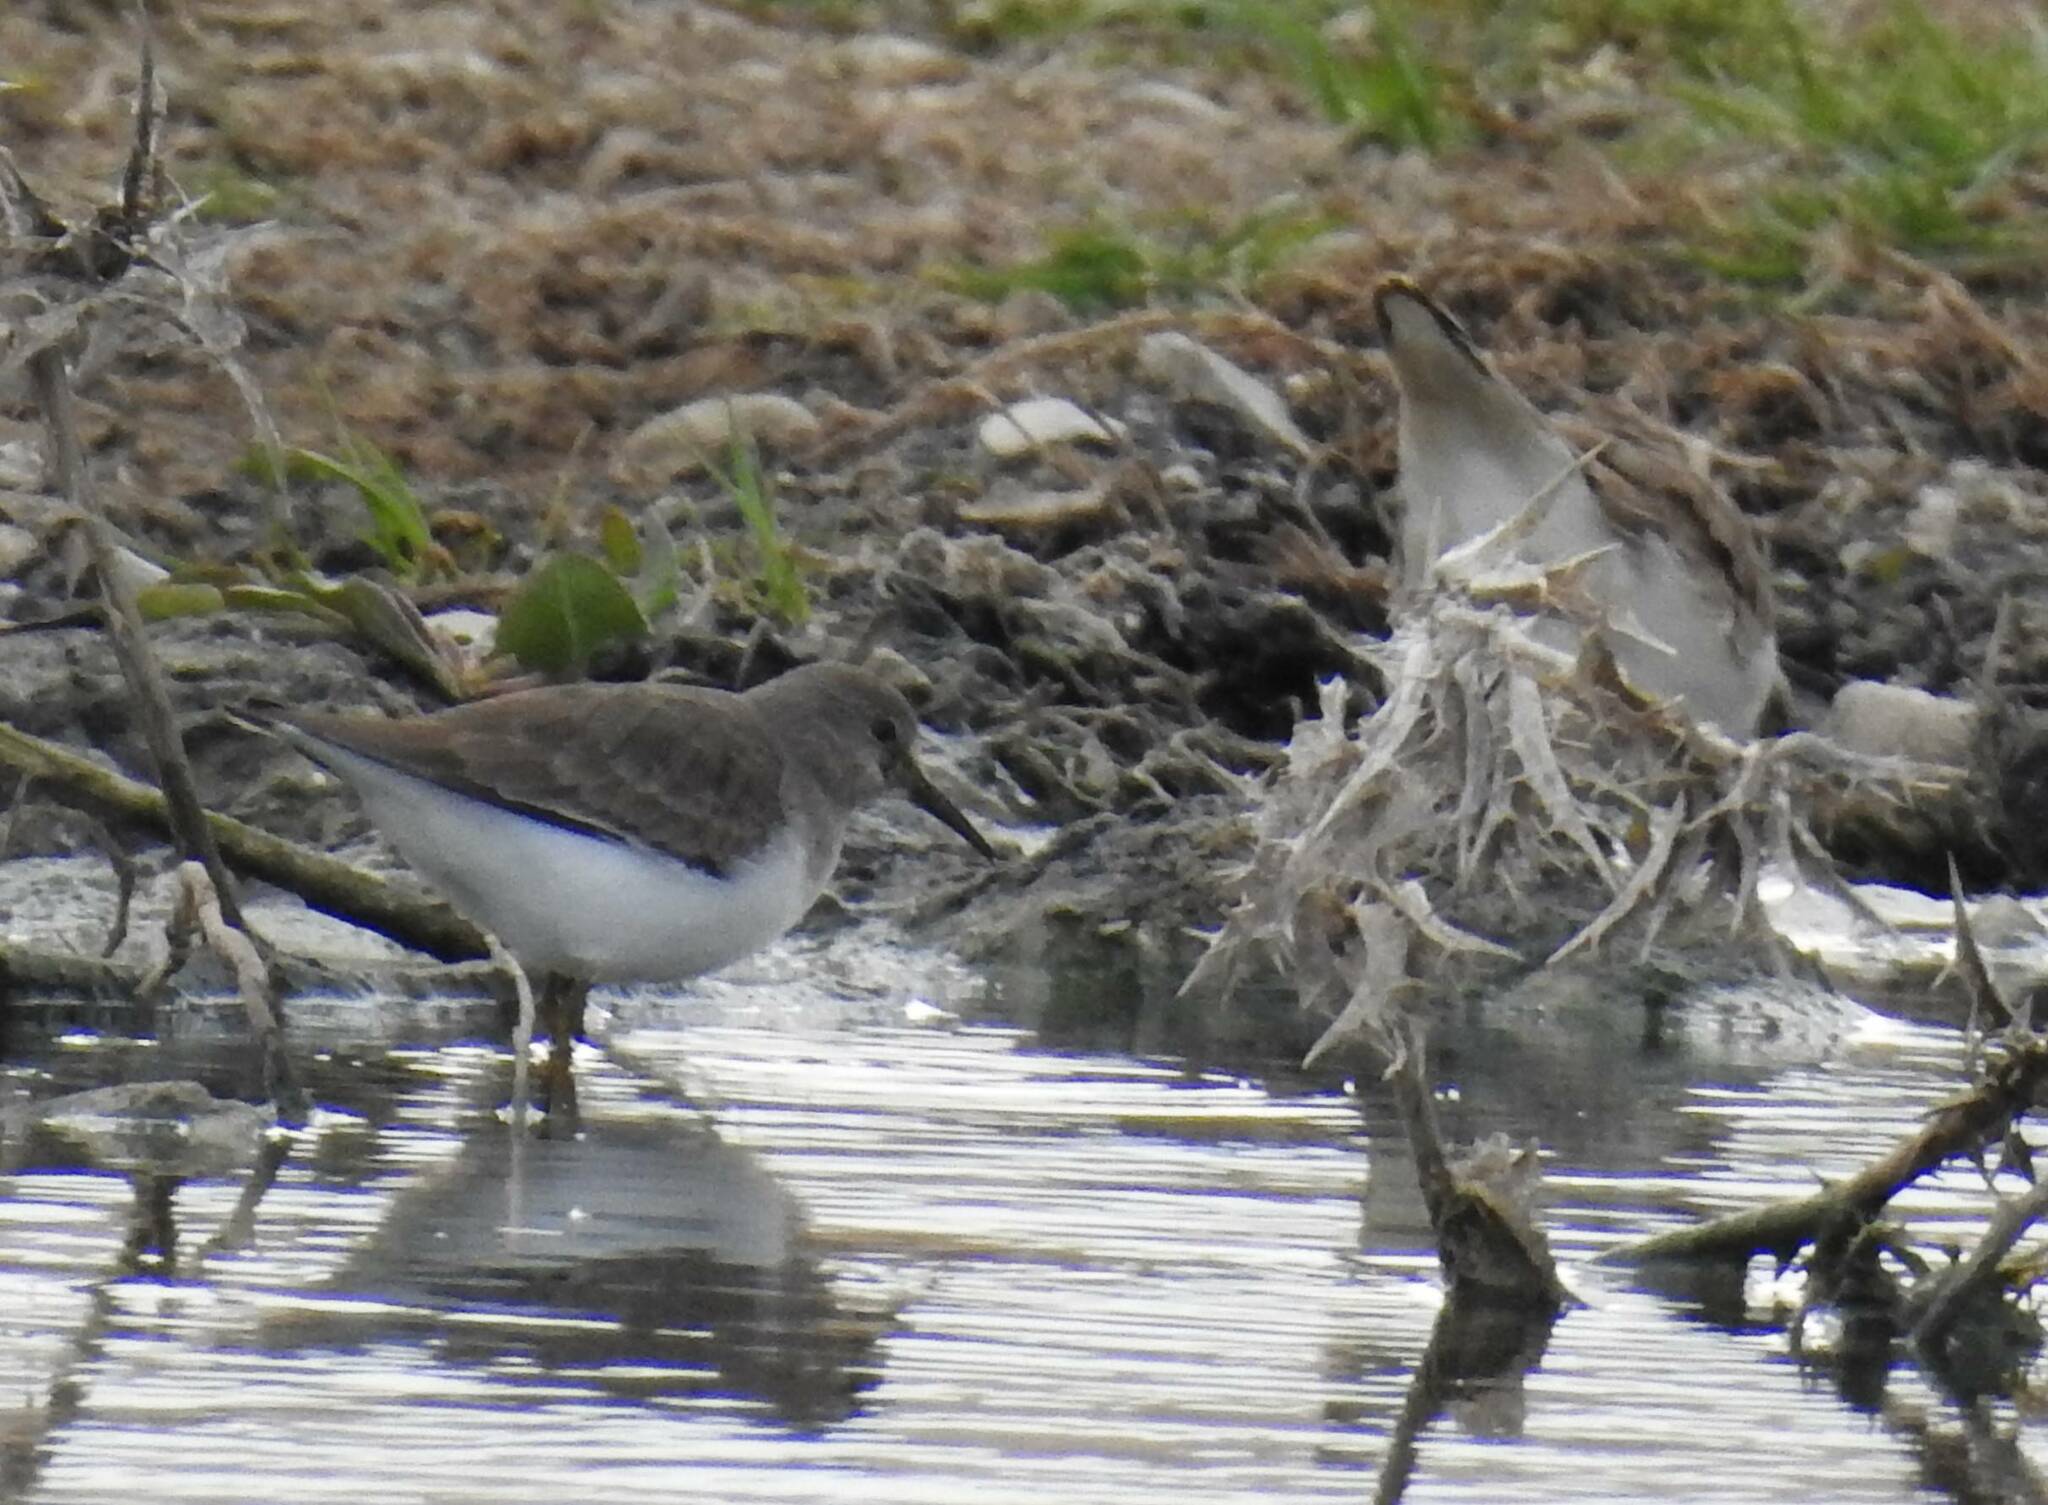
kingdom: Animalia
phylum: Chordata
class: Aves
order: Charadriiformes
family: Scolopacidae
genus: Calidris
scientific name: Calidris temminckii
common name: Temminck's stint
